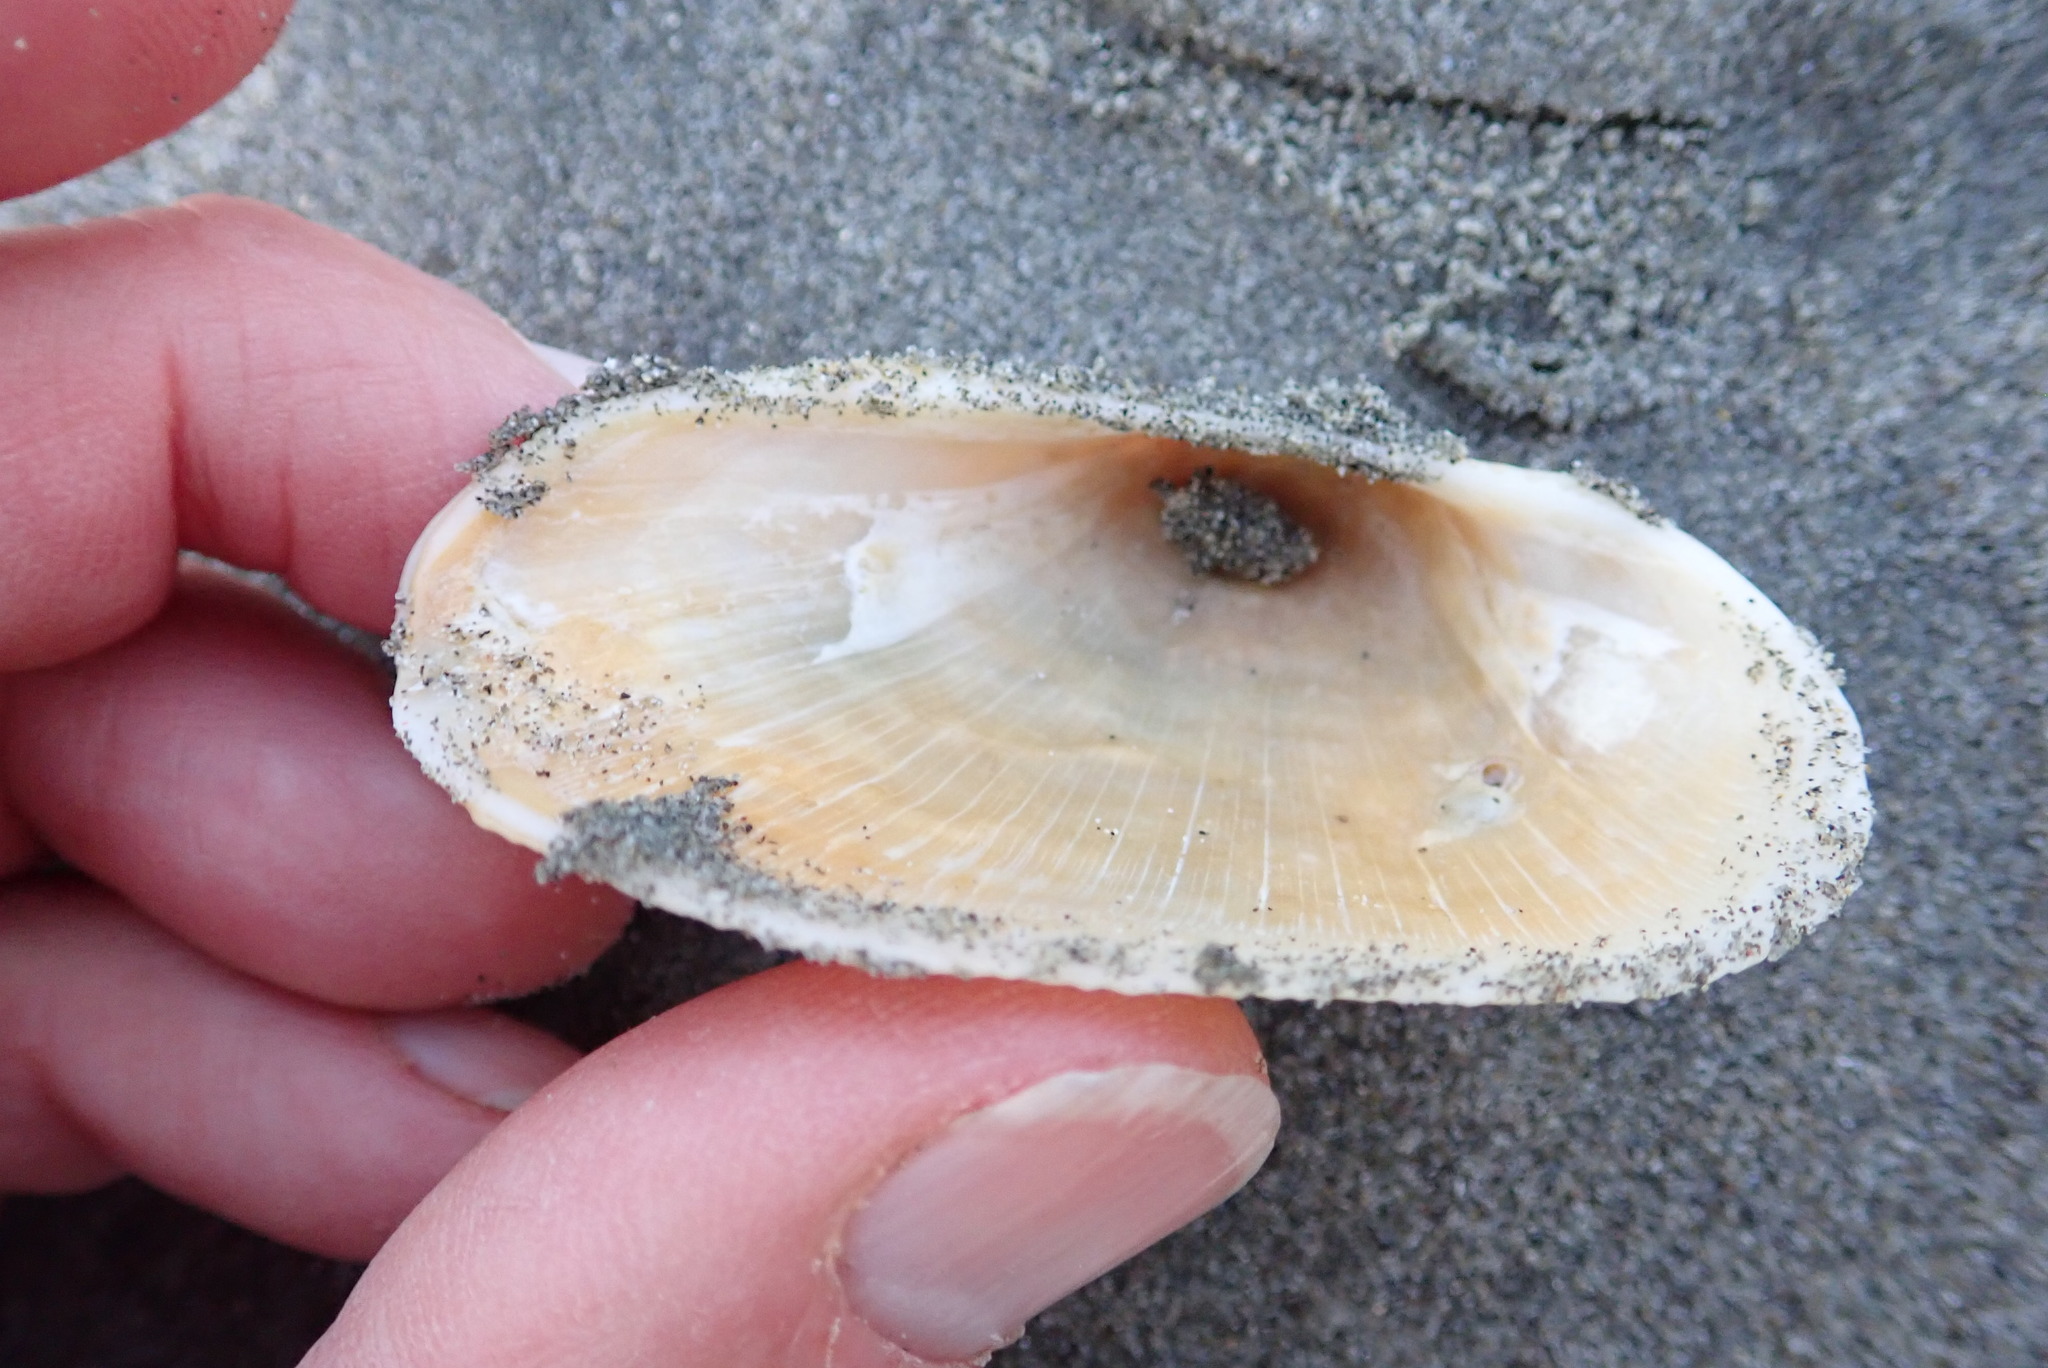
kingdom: Animalia
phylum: Mollusca
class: Bivalvia
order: Arcida
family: Arcidae
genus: Barbatia
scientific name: Barbatia novaezealandiae
